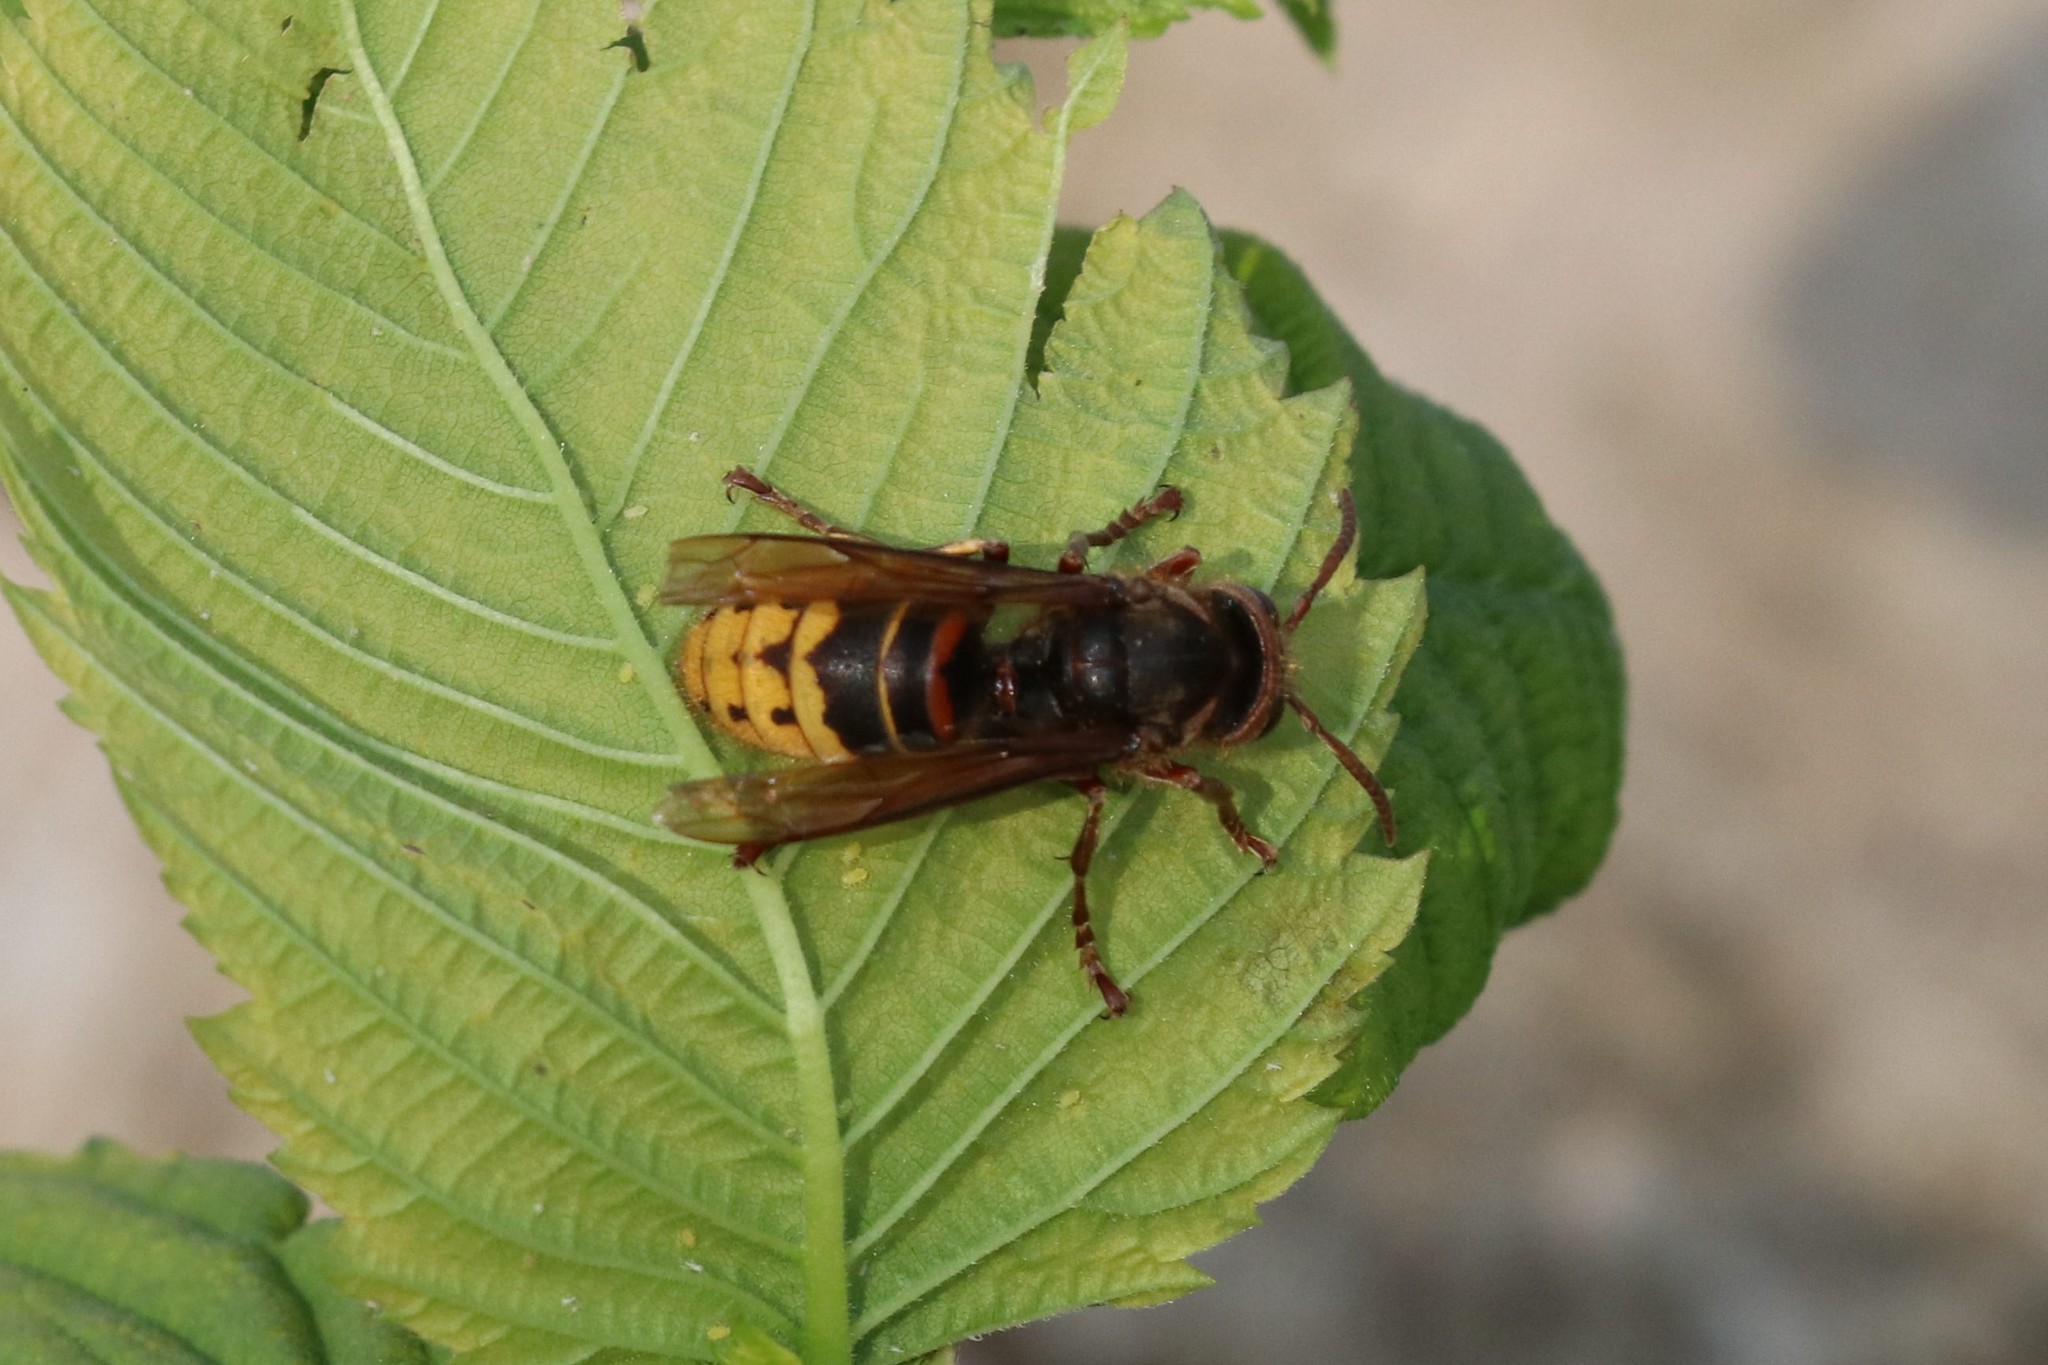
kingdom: Animalia
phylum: Arthropoda
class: Insecta
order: Hymenoptera
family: Vespidae
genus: Vespa
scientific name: Vespa crabro
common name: Hornet
